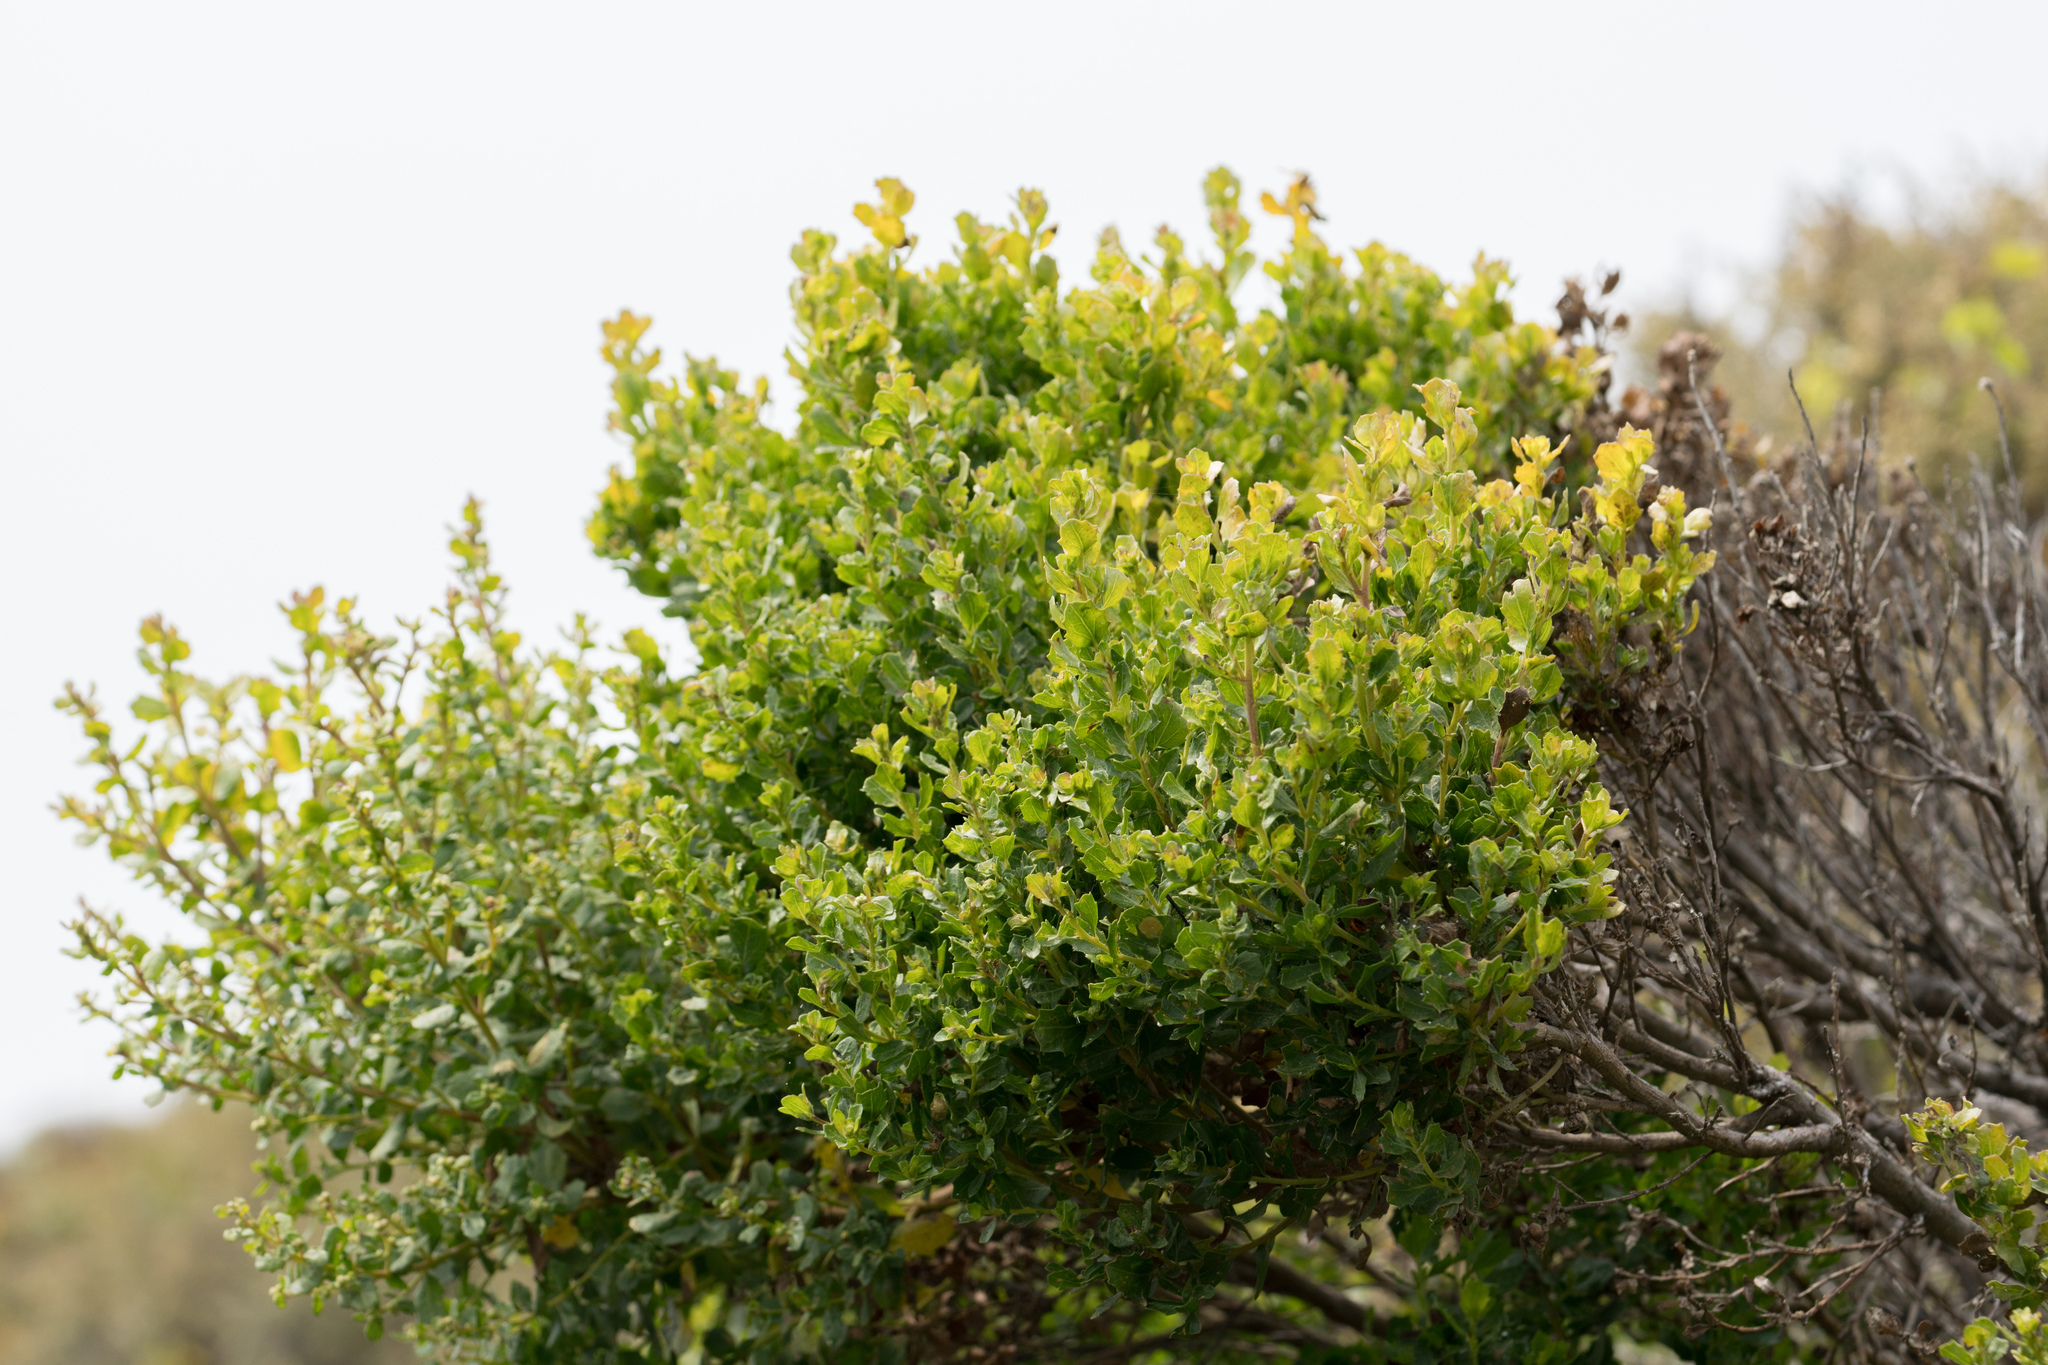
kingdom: Plantae
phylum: Tracheophyta
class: Magnoliopsida
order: Asterales
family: Asteraceae
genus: Baccharis
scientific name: Baccharis pilularis
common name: Coyotebrush
